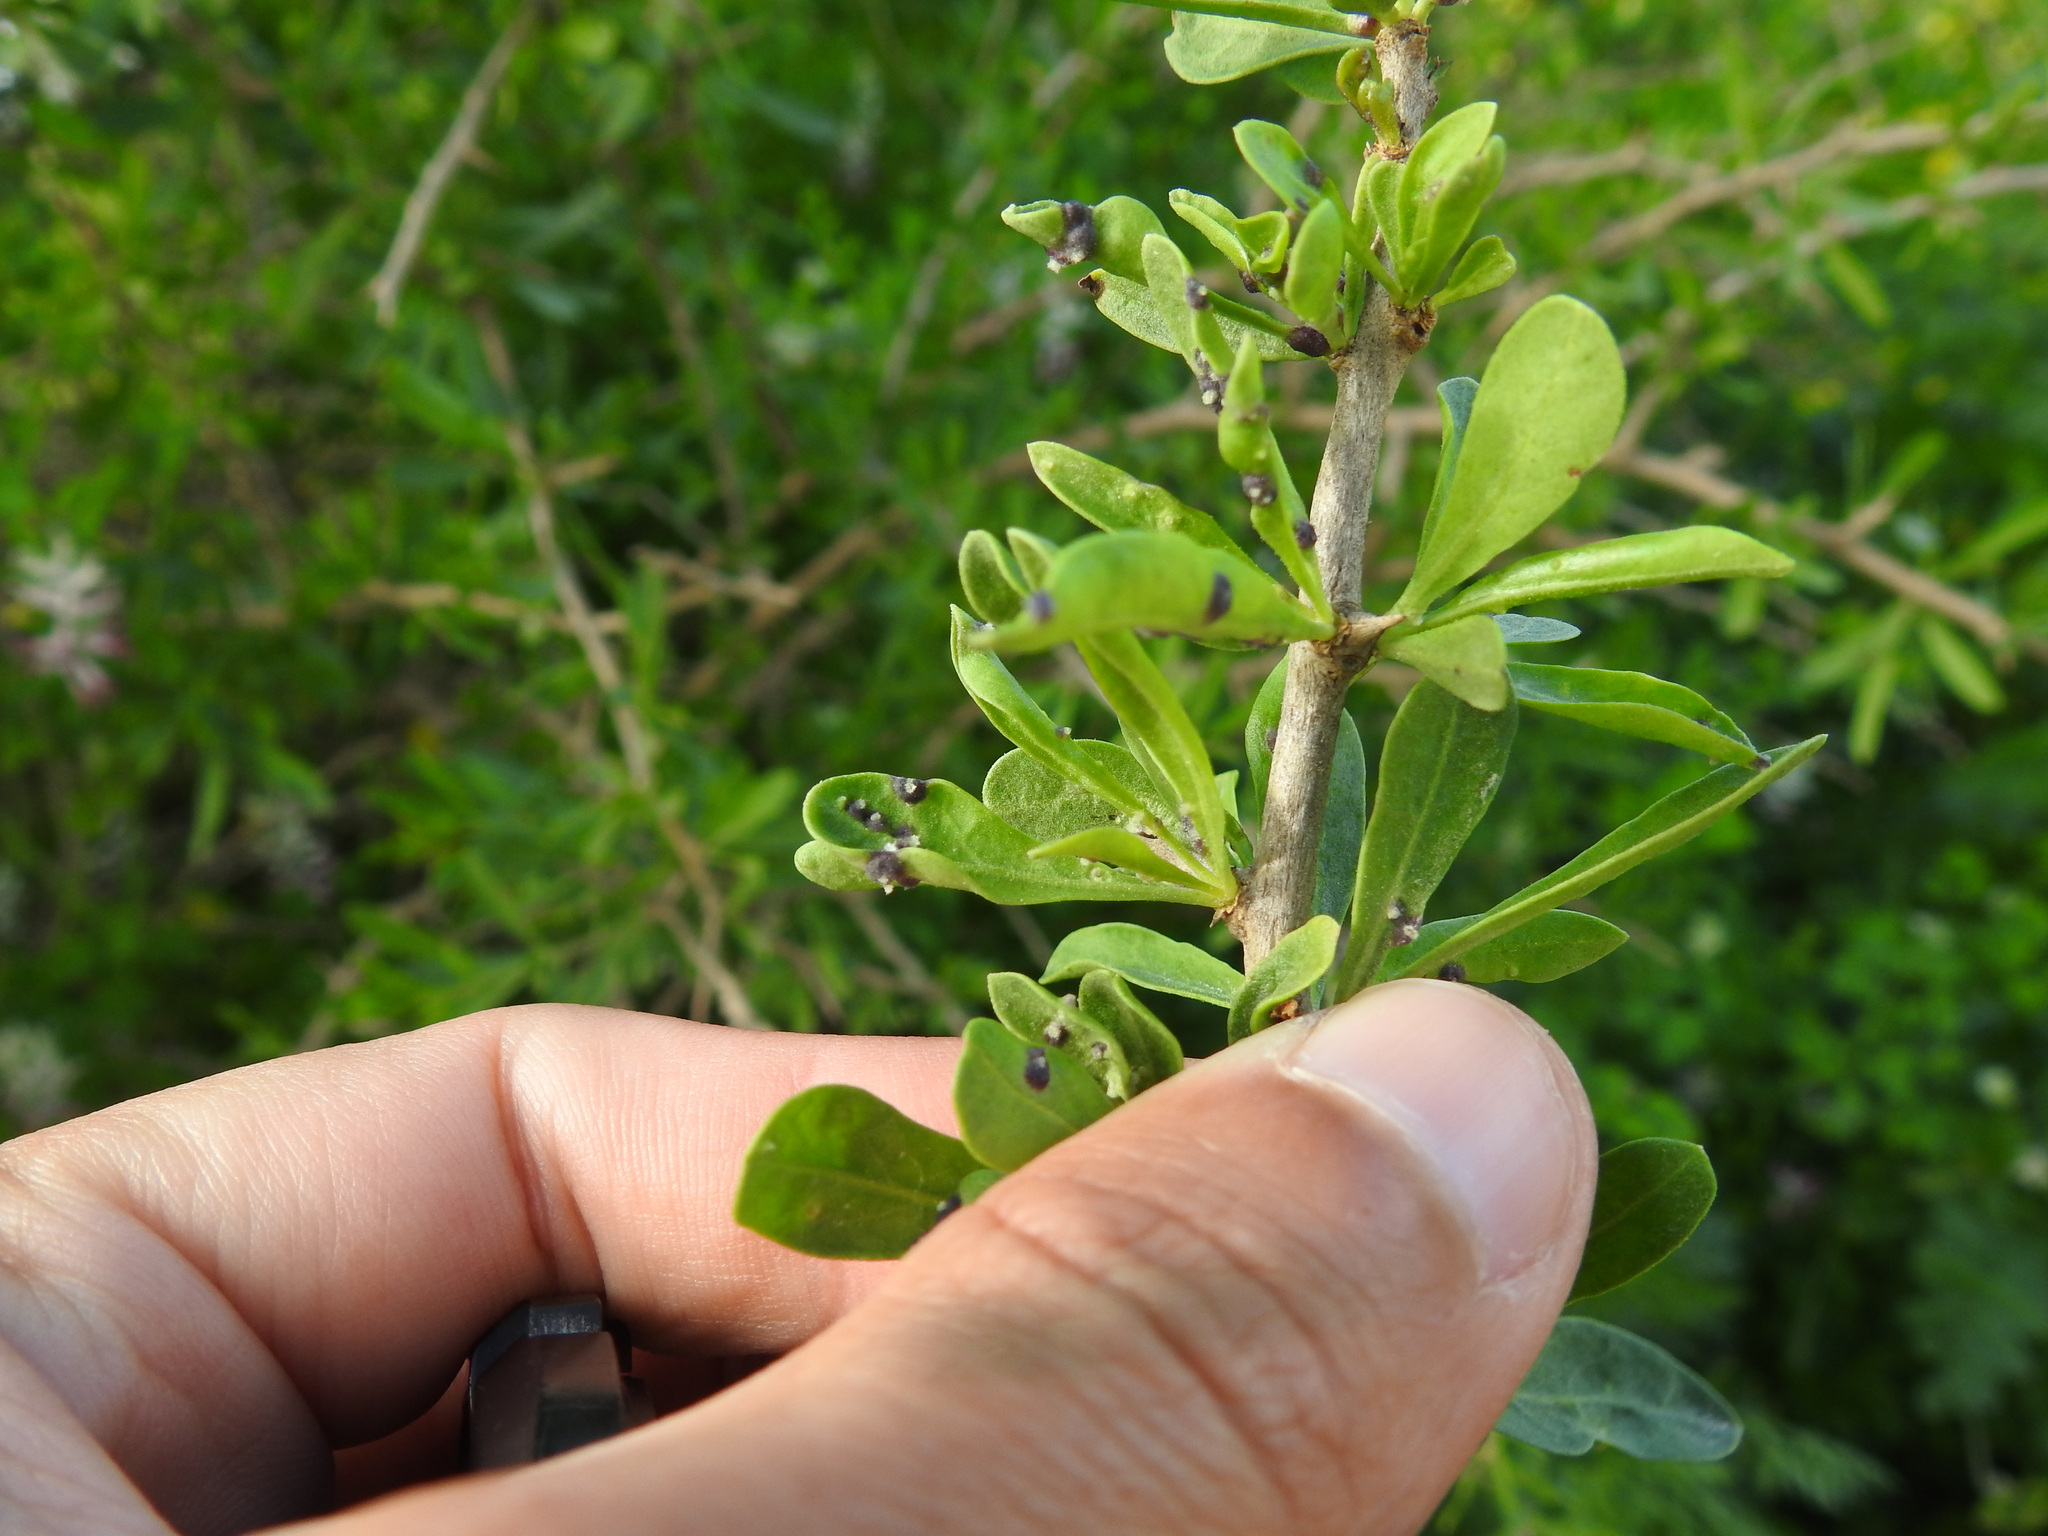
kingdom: Animalia
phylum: Arthropoda
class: Arachnida
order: Trombidiformes
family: Eriophyidae
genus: Aceria
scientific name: Aceria eucricotes
